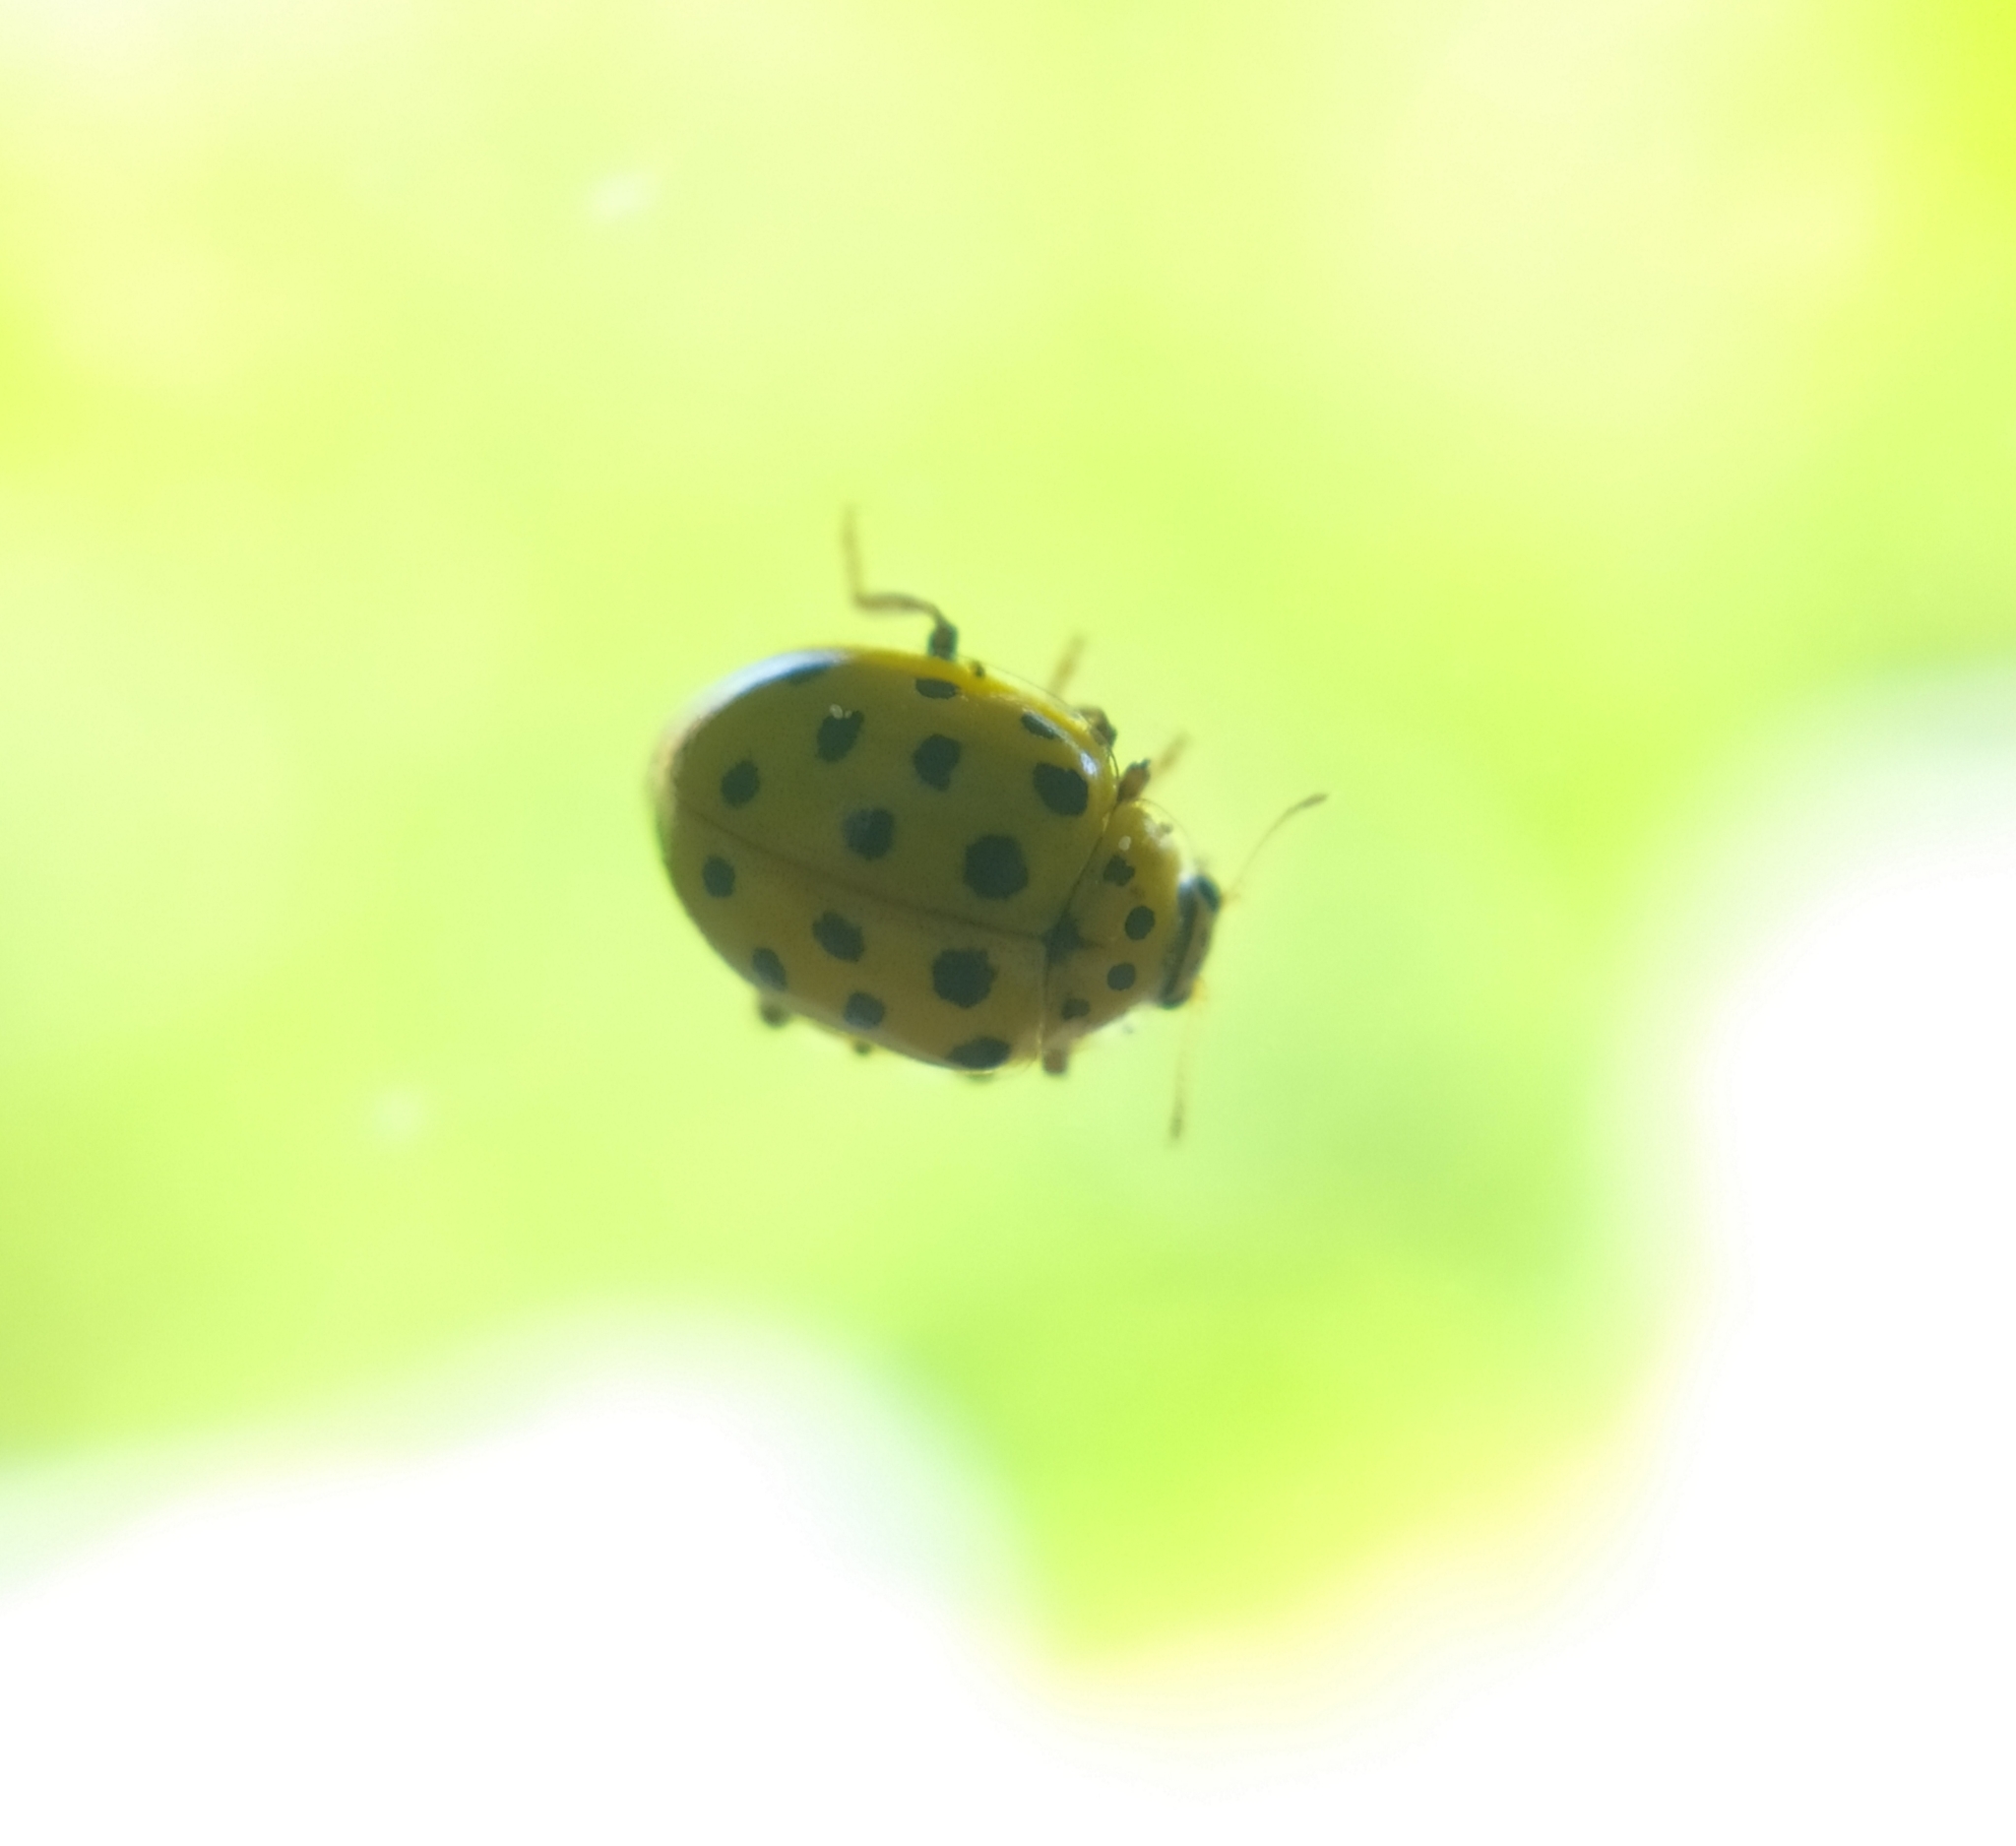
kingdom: Animalia
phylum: Arthropoda
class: Insecta
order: Coleoptera
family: Coccinellidae
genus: Psyllobora
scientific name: Psyllobora vigintiduopunctata
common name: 22-spot ladybird
